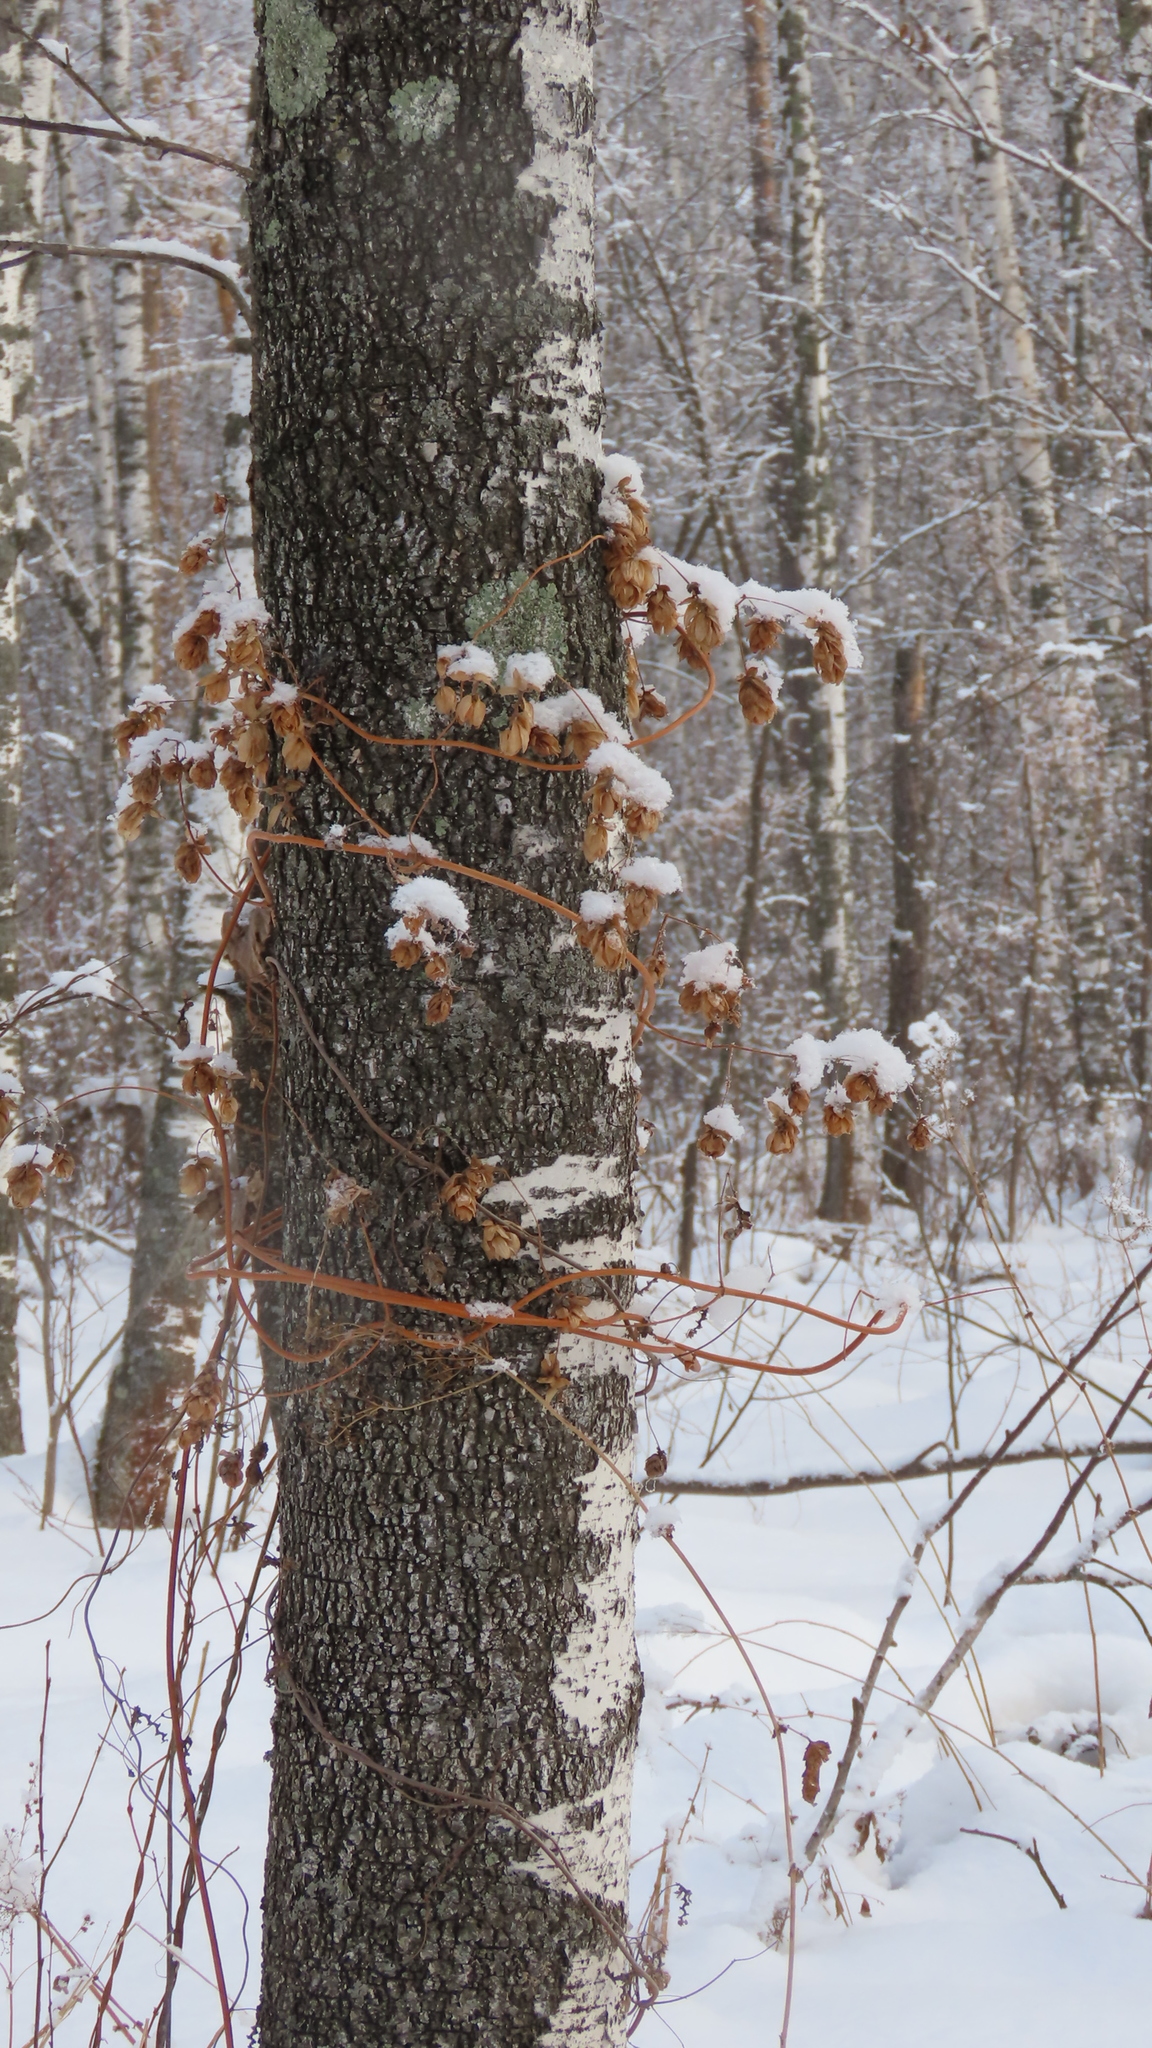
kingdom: Plantae
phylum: Tracheophyta
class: Magnoliopsida
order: Rosales
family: Cannabaceae
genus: Humulus
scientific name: Humulus lupulus
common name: Hop
